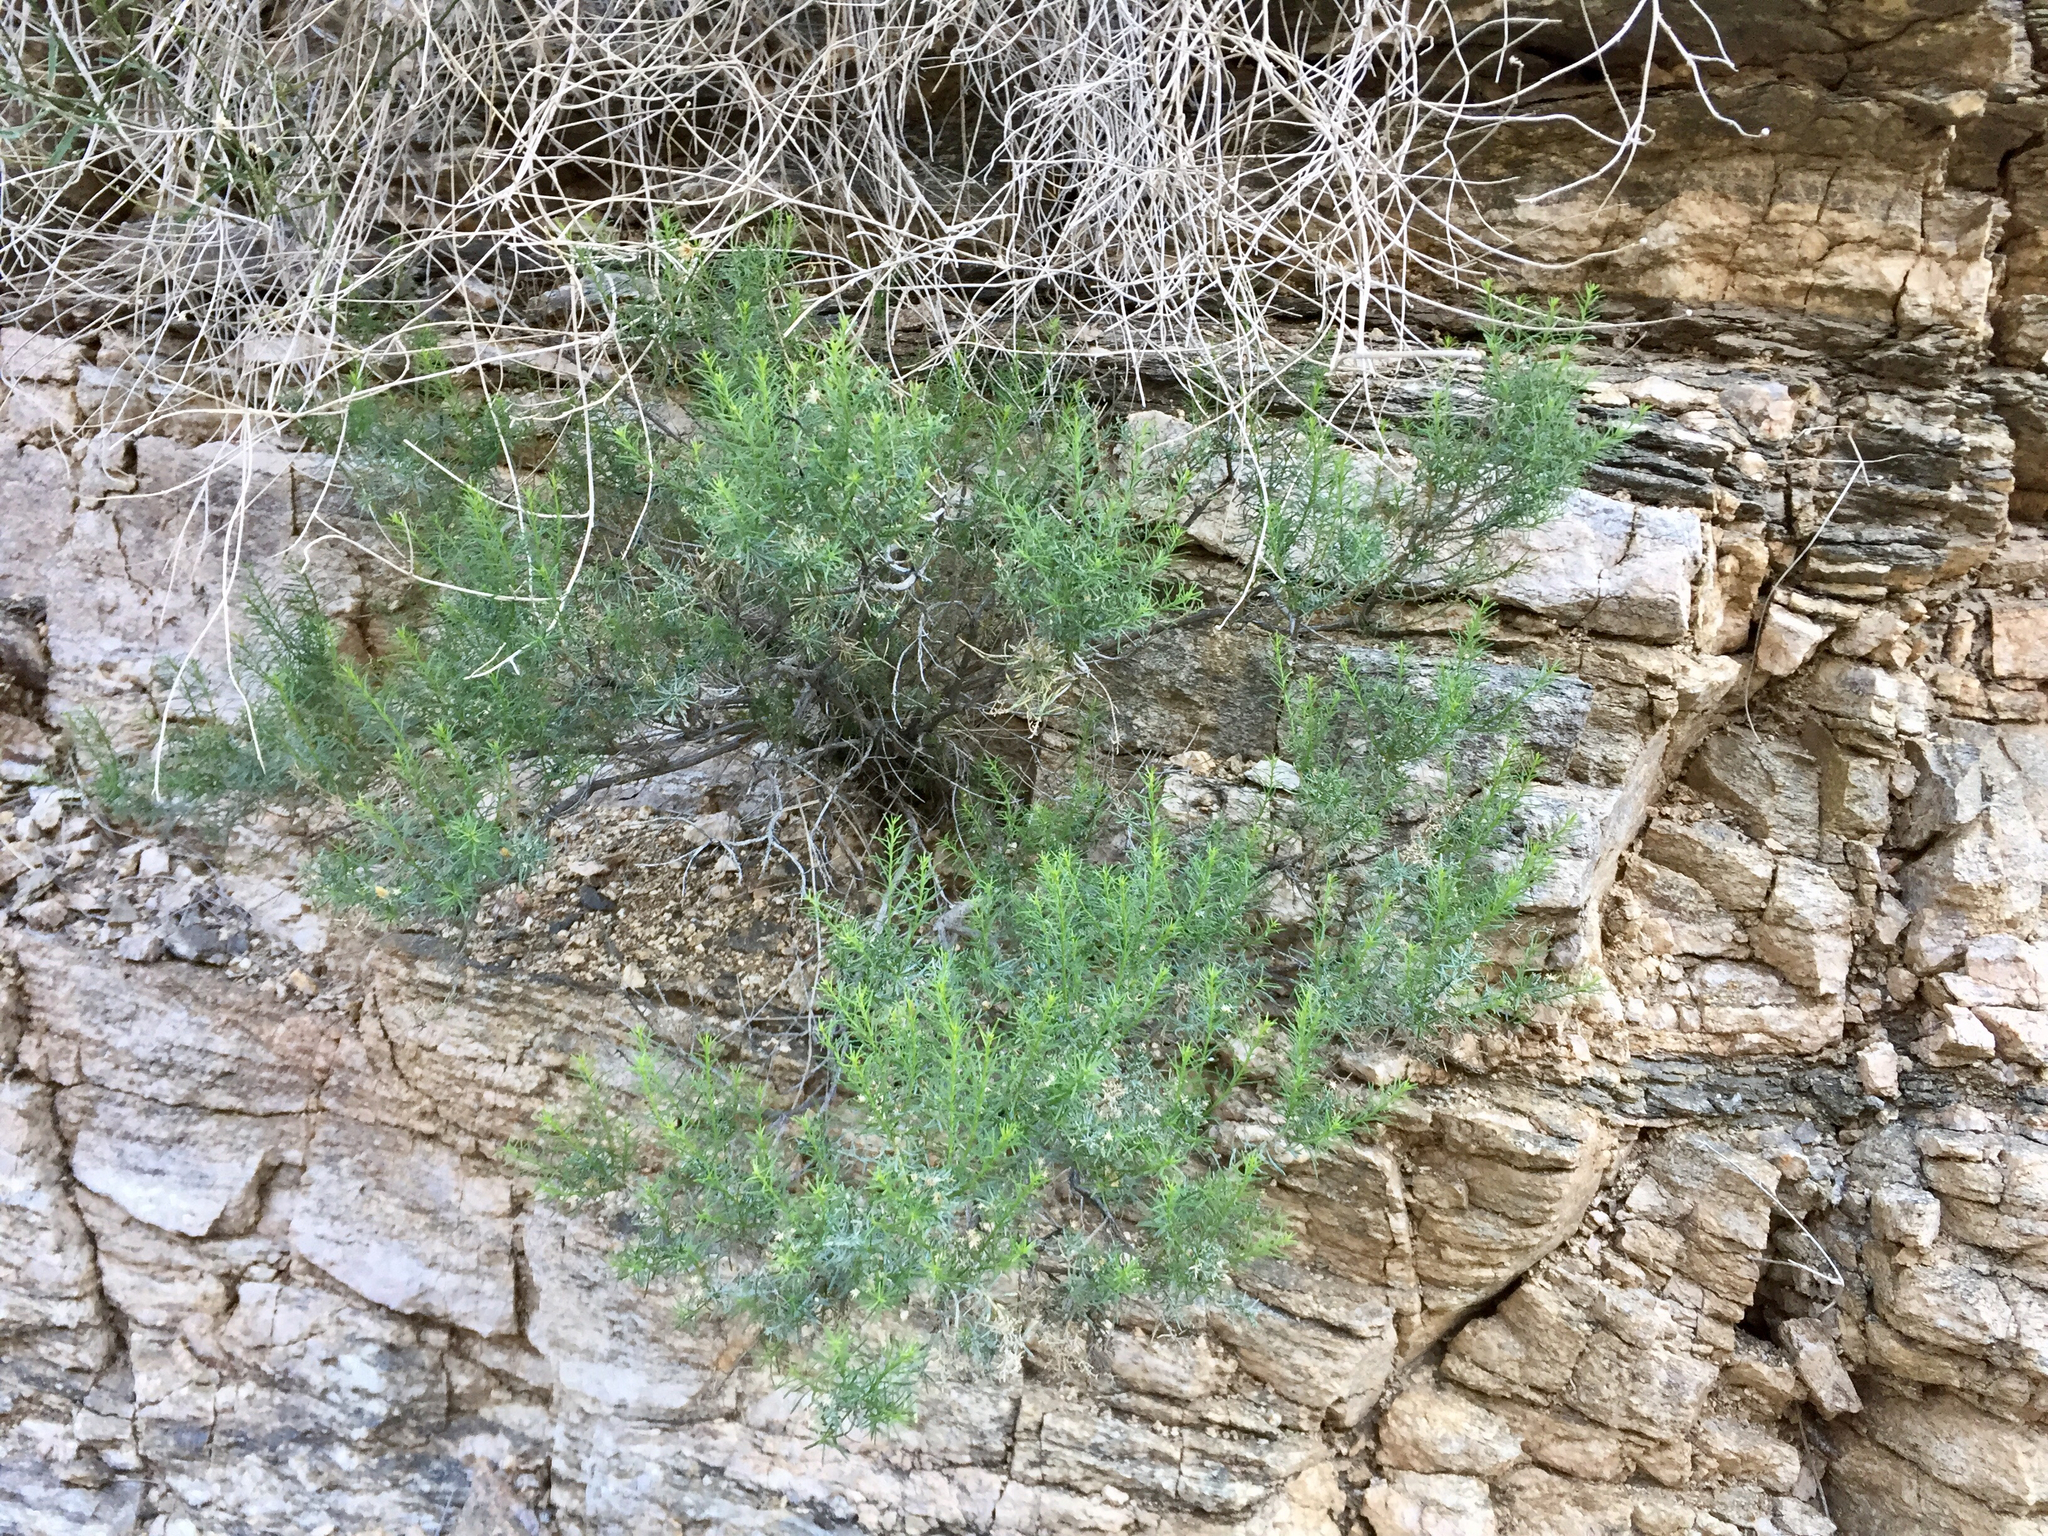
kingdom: Plantae
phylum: Tracheophyta
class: Magnoliopsida
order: Asterales
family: Asteraceae
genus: Ericameria
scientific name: Ericameria laricifolia
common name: Turpentine-bush
